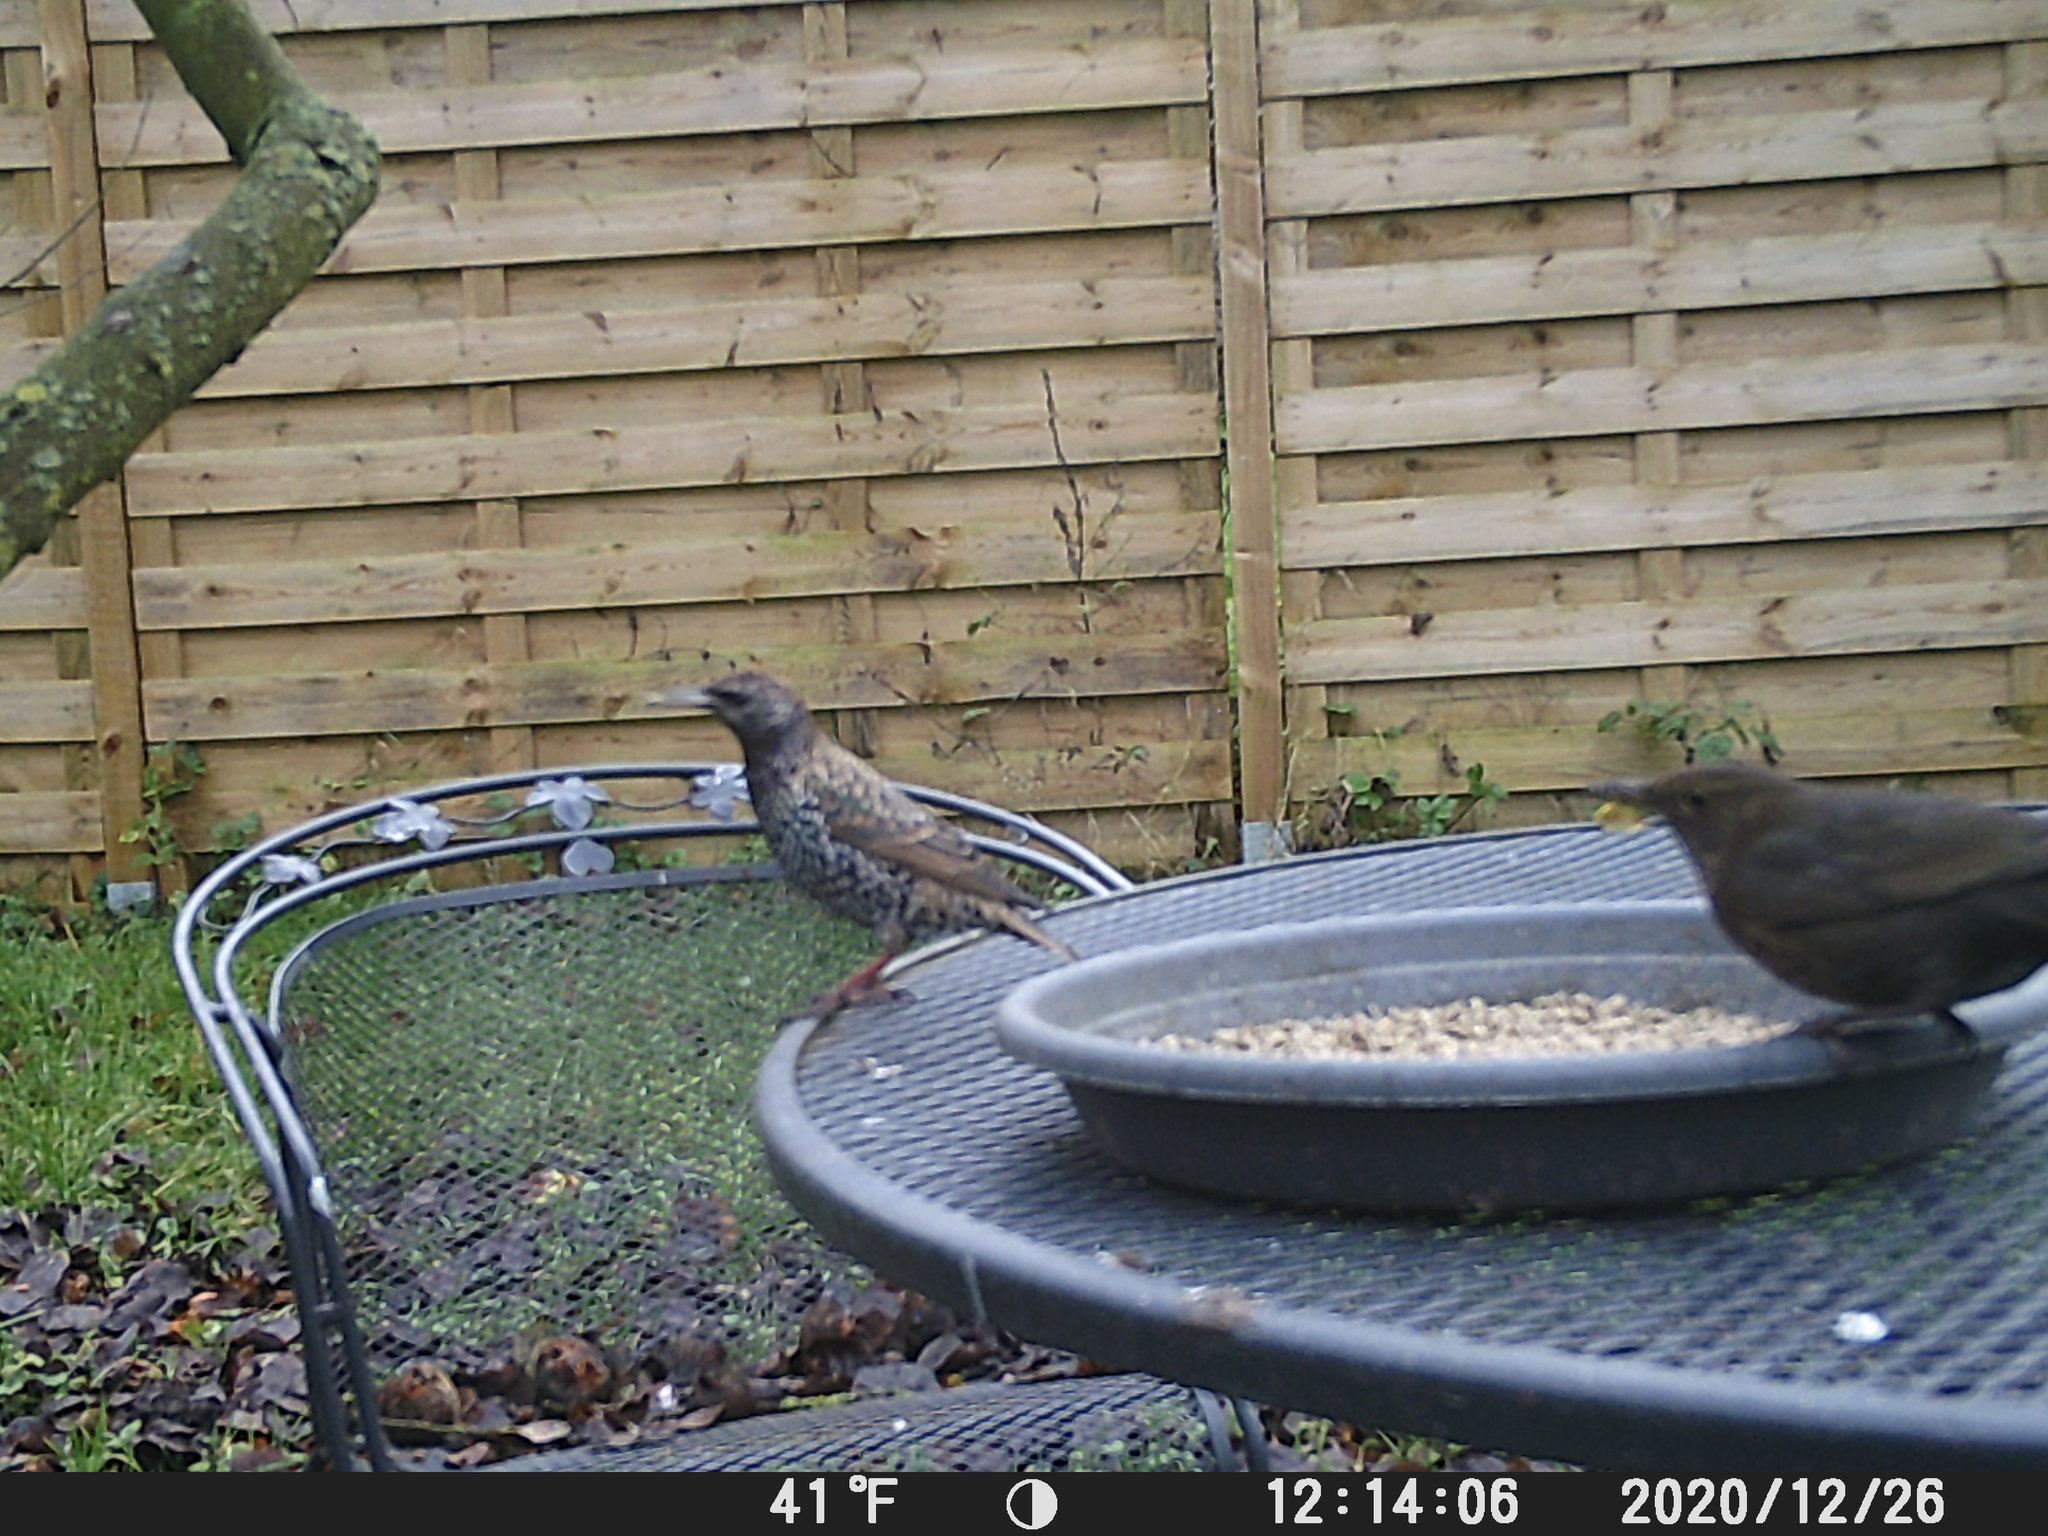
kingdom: Animalia
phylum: Chordata
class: Aves
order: Passeriformes
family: Sturnidae
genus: Sturnus
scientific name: Sturnus vulgaris
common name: Common starling
